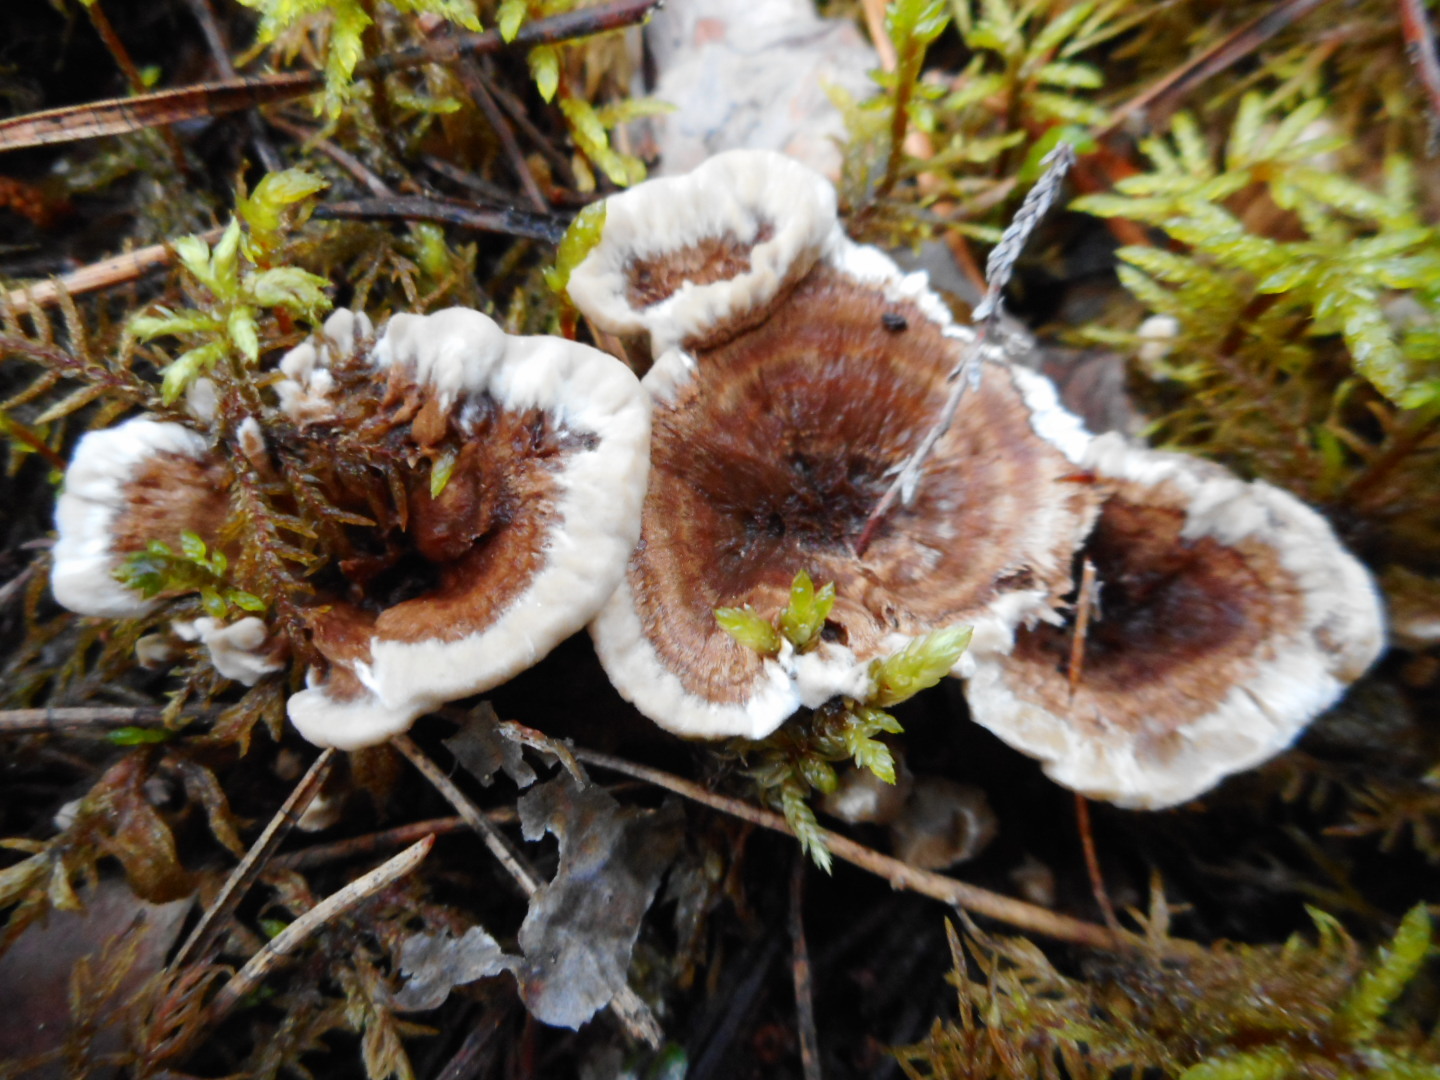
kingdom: Fungi
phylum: Basidiomycota
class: Agaricomycetes
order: Thelephorales
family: Thelephoraceae
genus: Phellodon
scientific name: Phellodon tomentosus
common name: Woolly tooth
